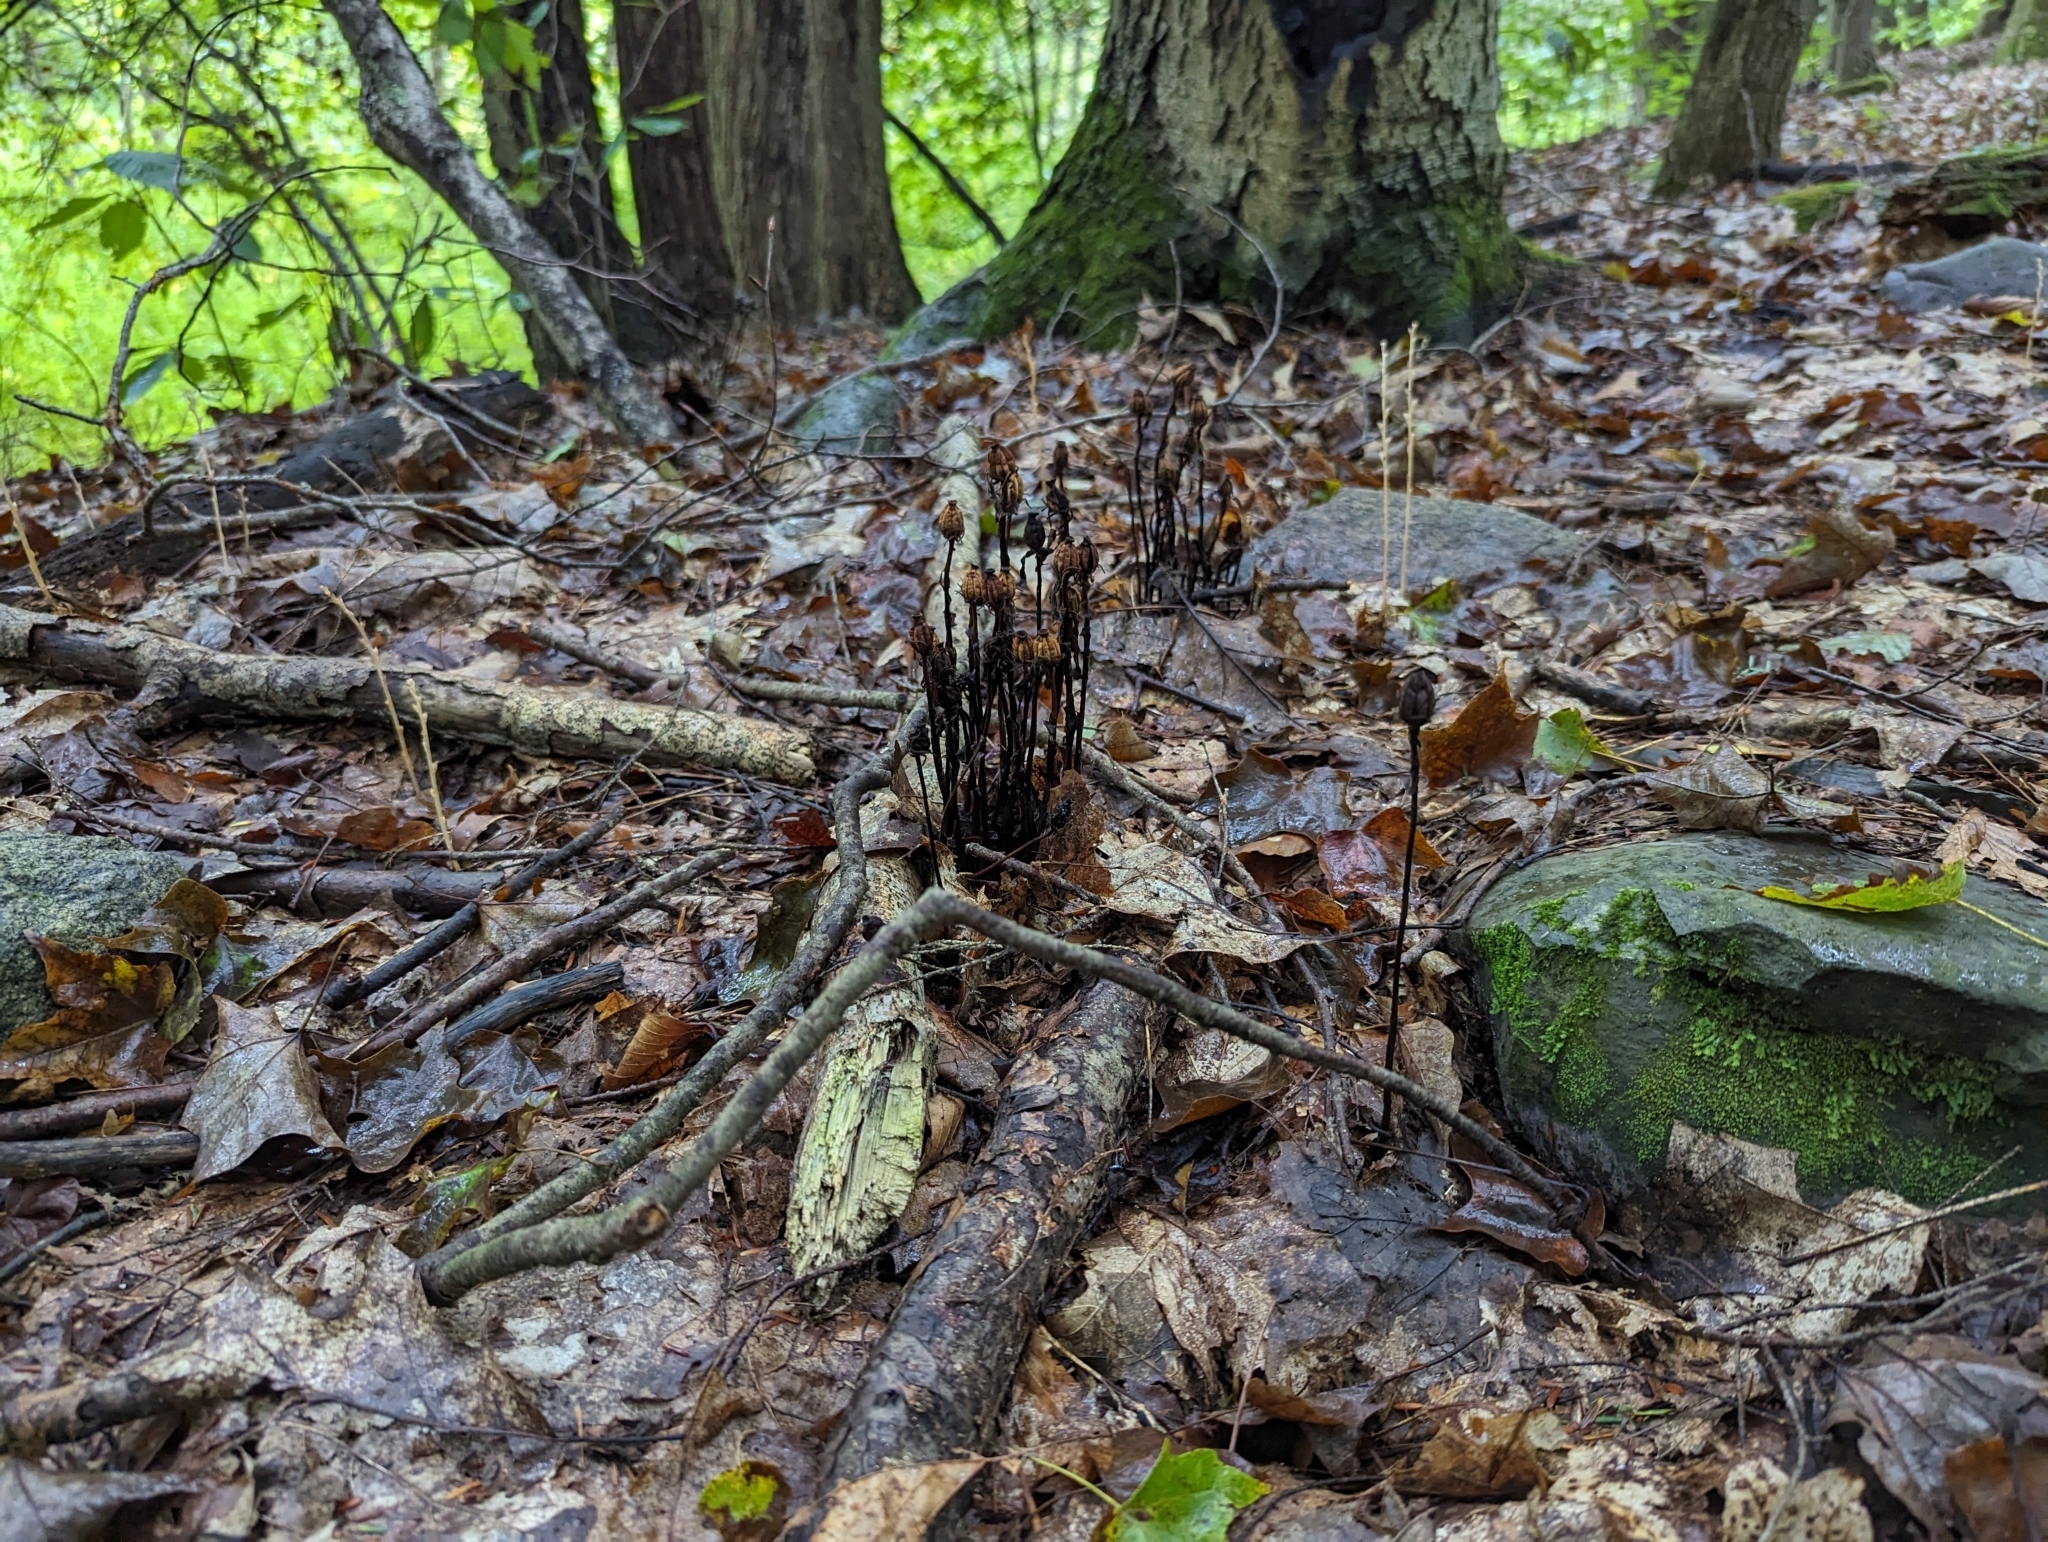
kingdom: Plantae
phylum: Tracheophyta
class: Magnoliopsida
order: Ericales
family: Ericaceae
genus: Monotropa
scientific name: Monotropa uniflora
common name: Convulsion root
